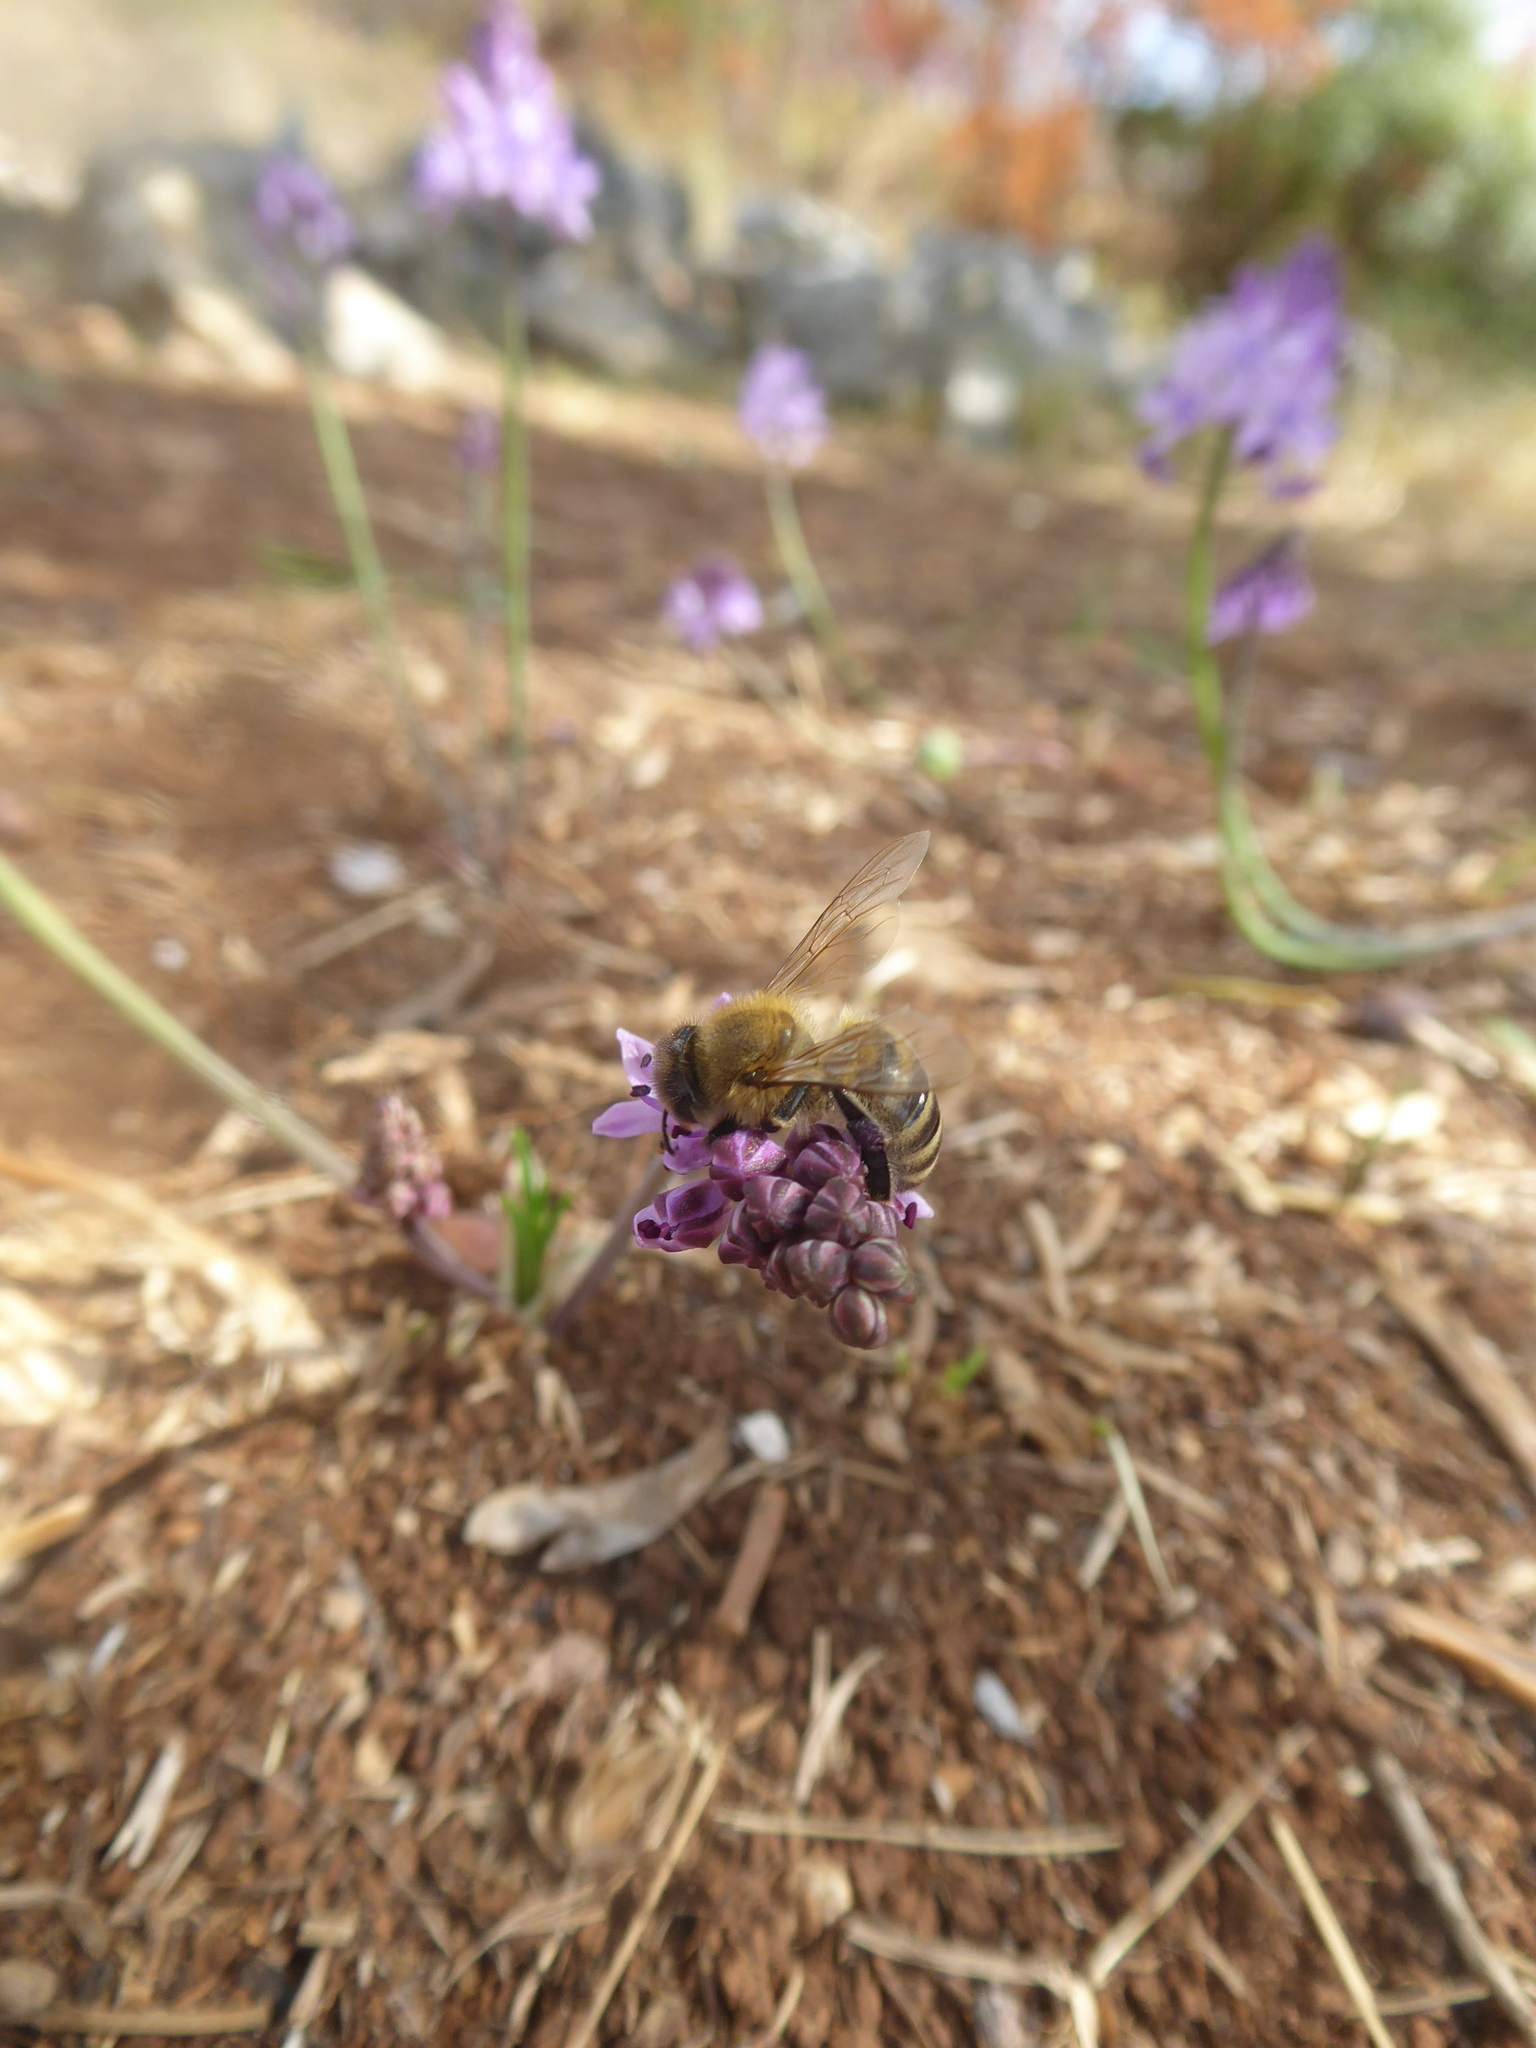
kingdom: Animalia
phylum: Arthropoda
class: Insecta
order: Hymenoptera
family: Apidae
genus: Apis
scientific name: Apis mellifera
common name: Honey bee
